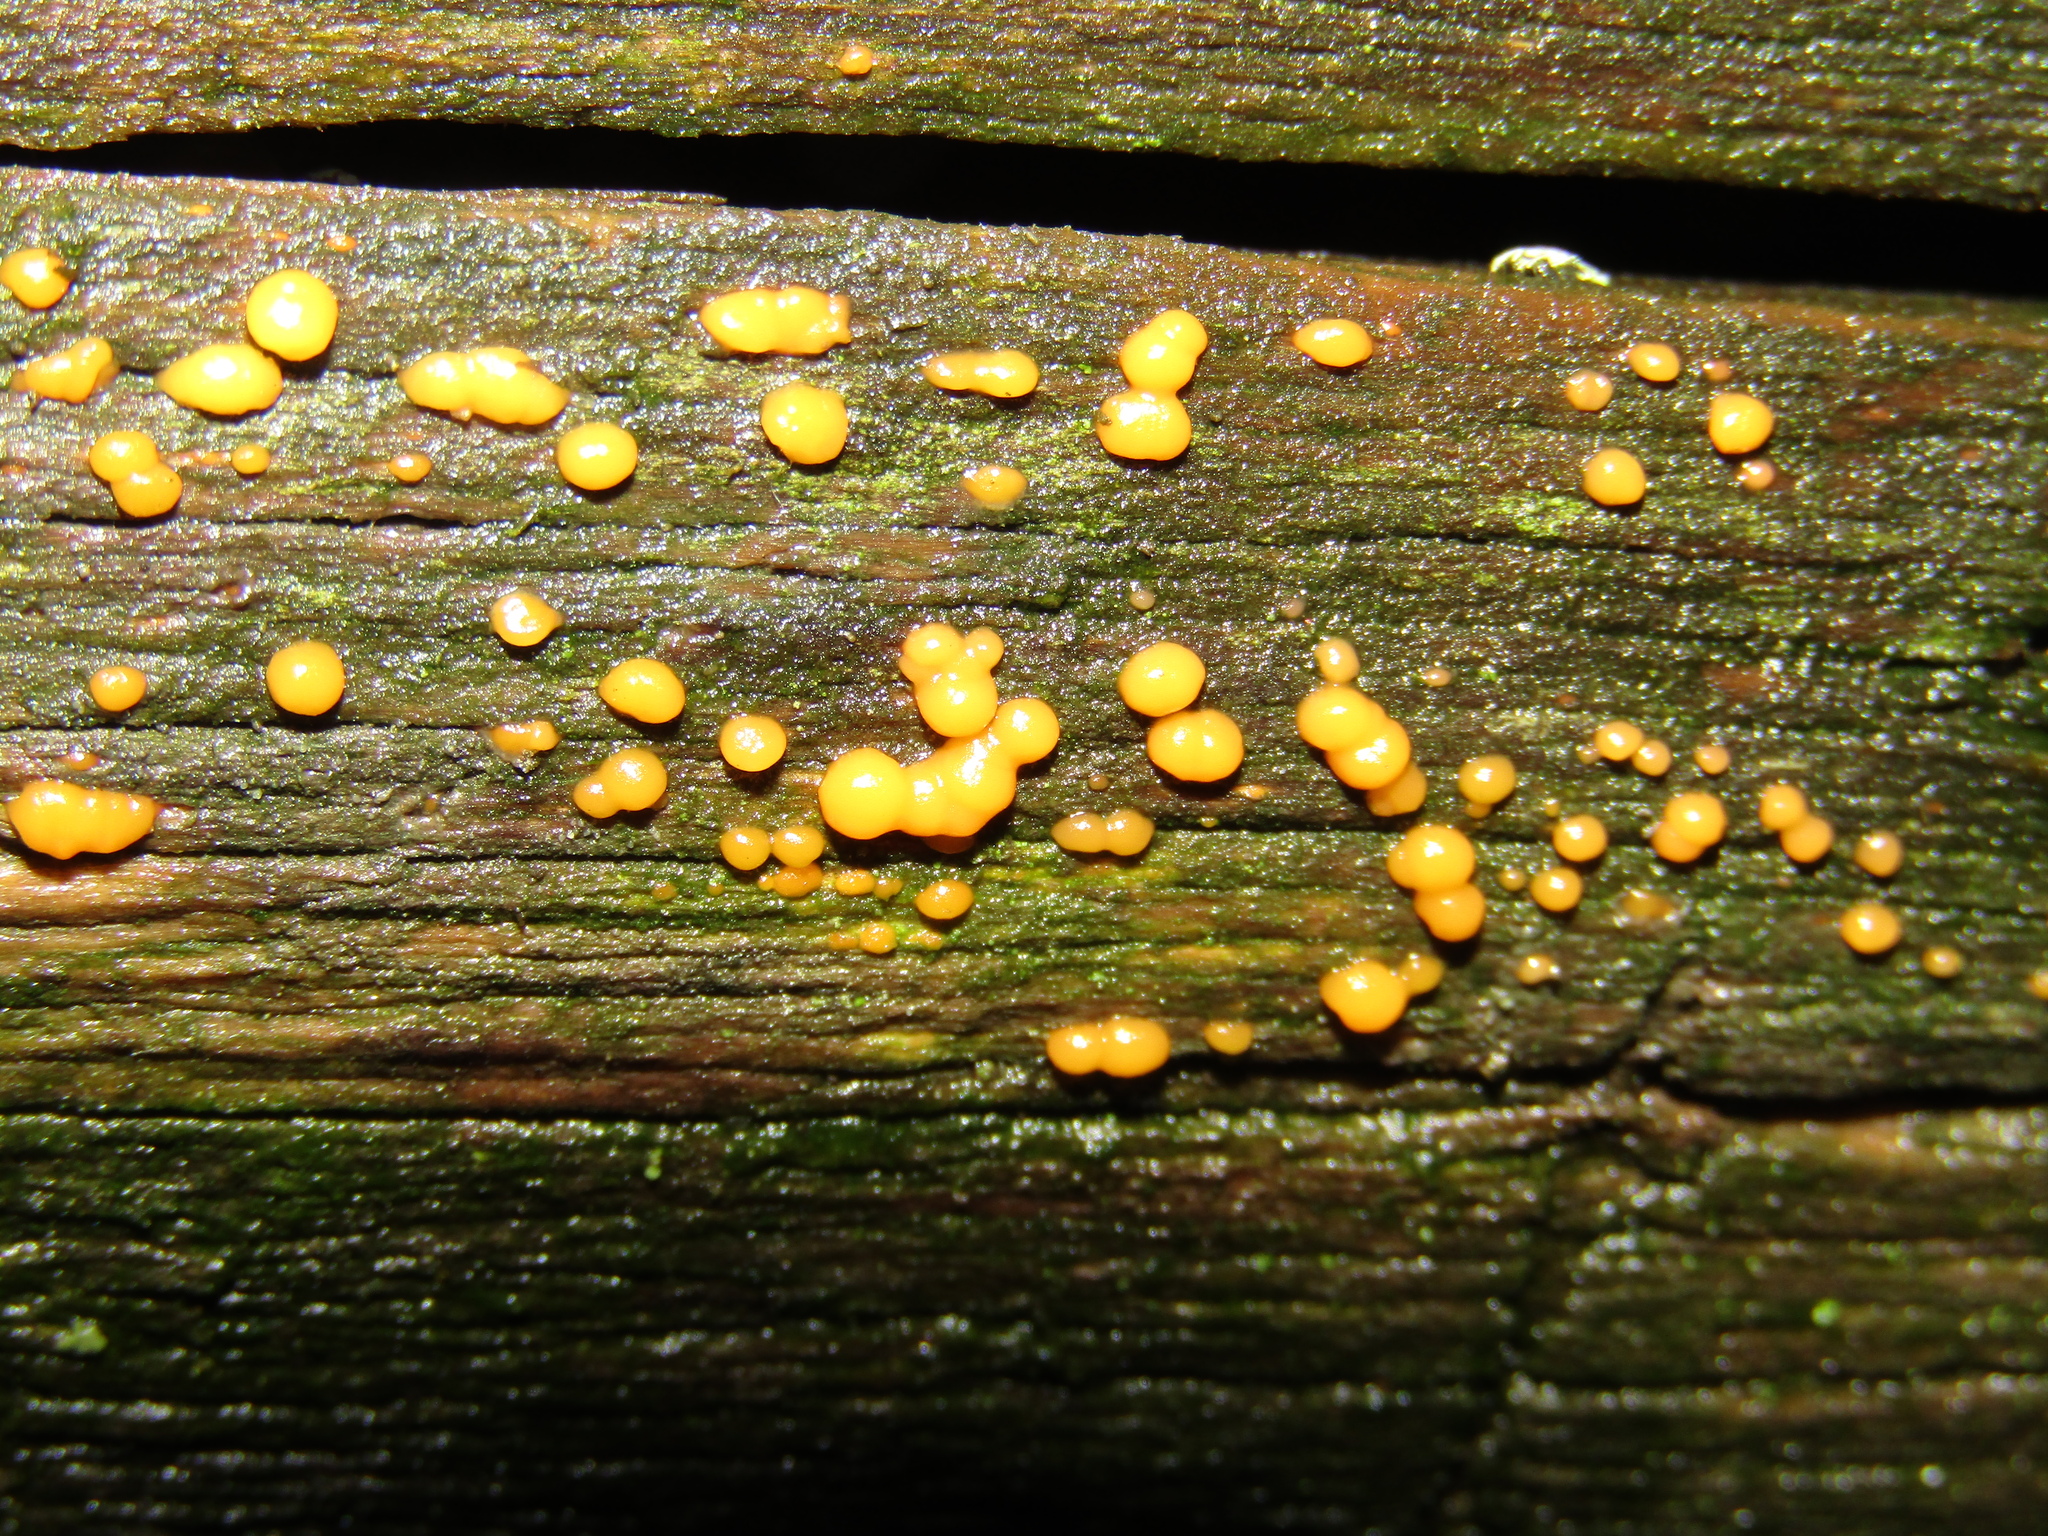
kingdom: Fungi
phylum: Basidiomycota
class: Dacrymycetes
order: Dacrymycetales
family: Dacrymycetaceae
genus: Dacrymyces
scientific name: Dacrymyces stillatus
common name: Common jelly spot
